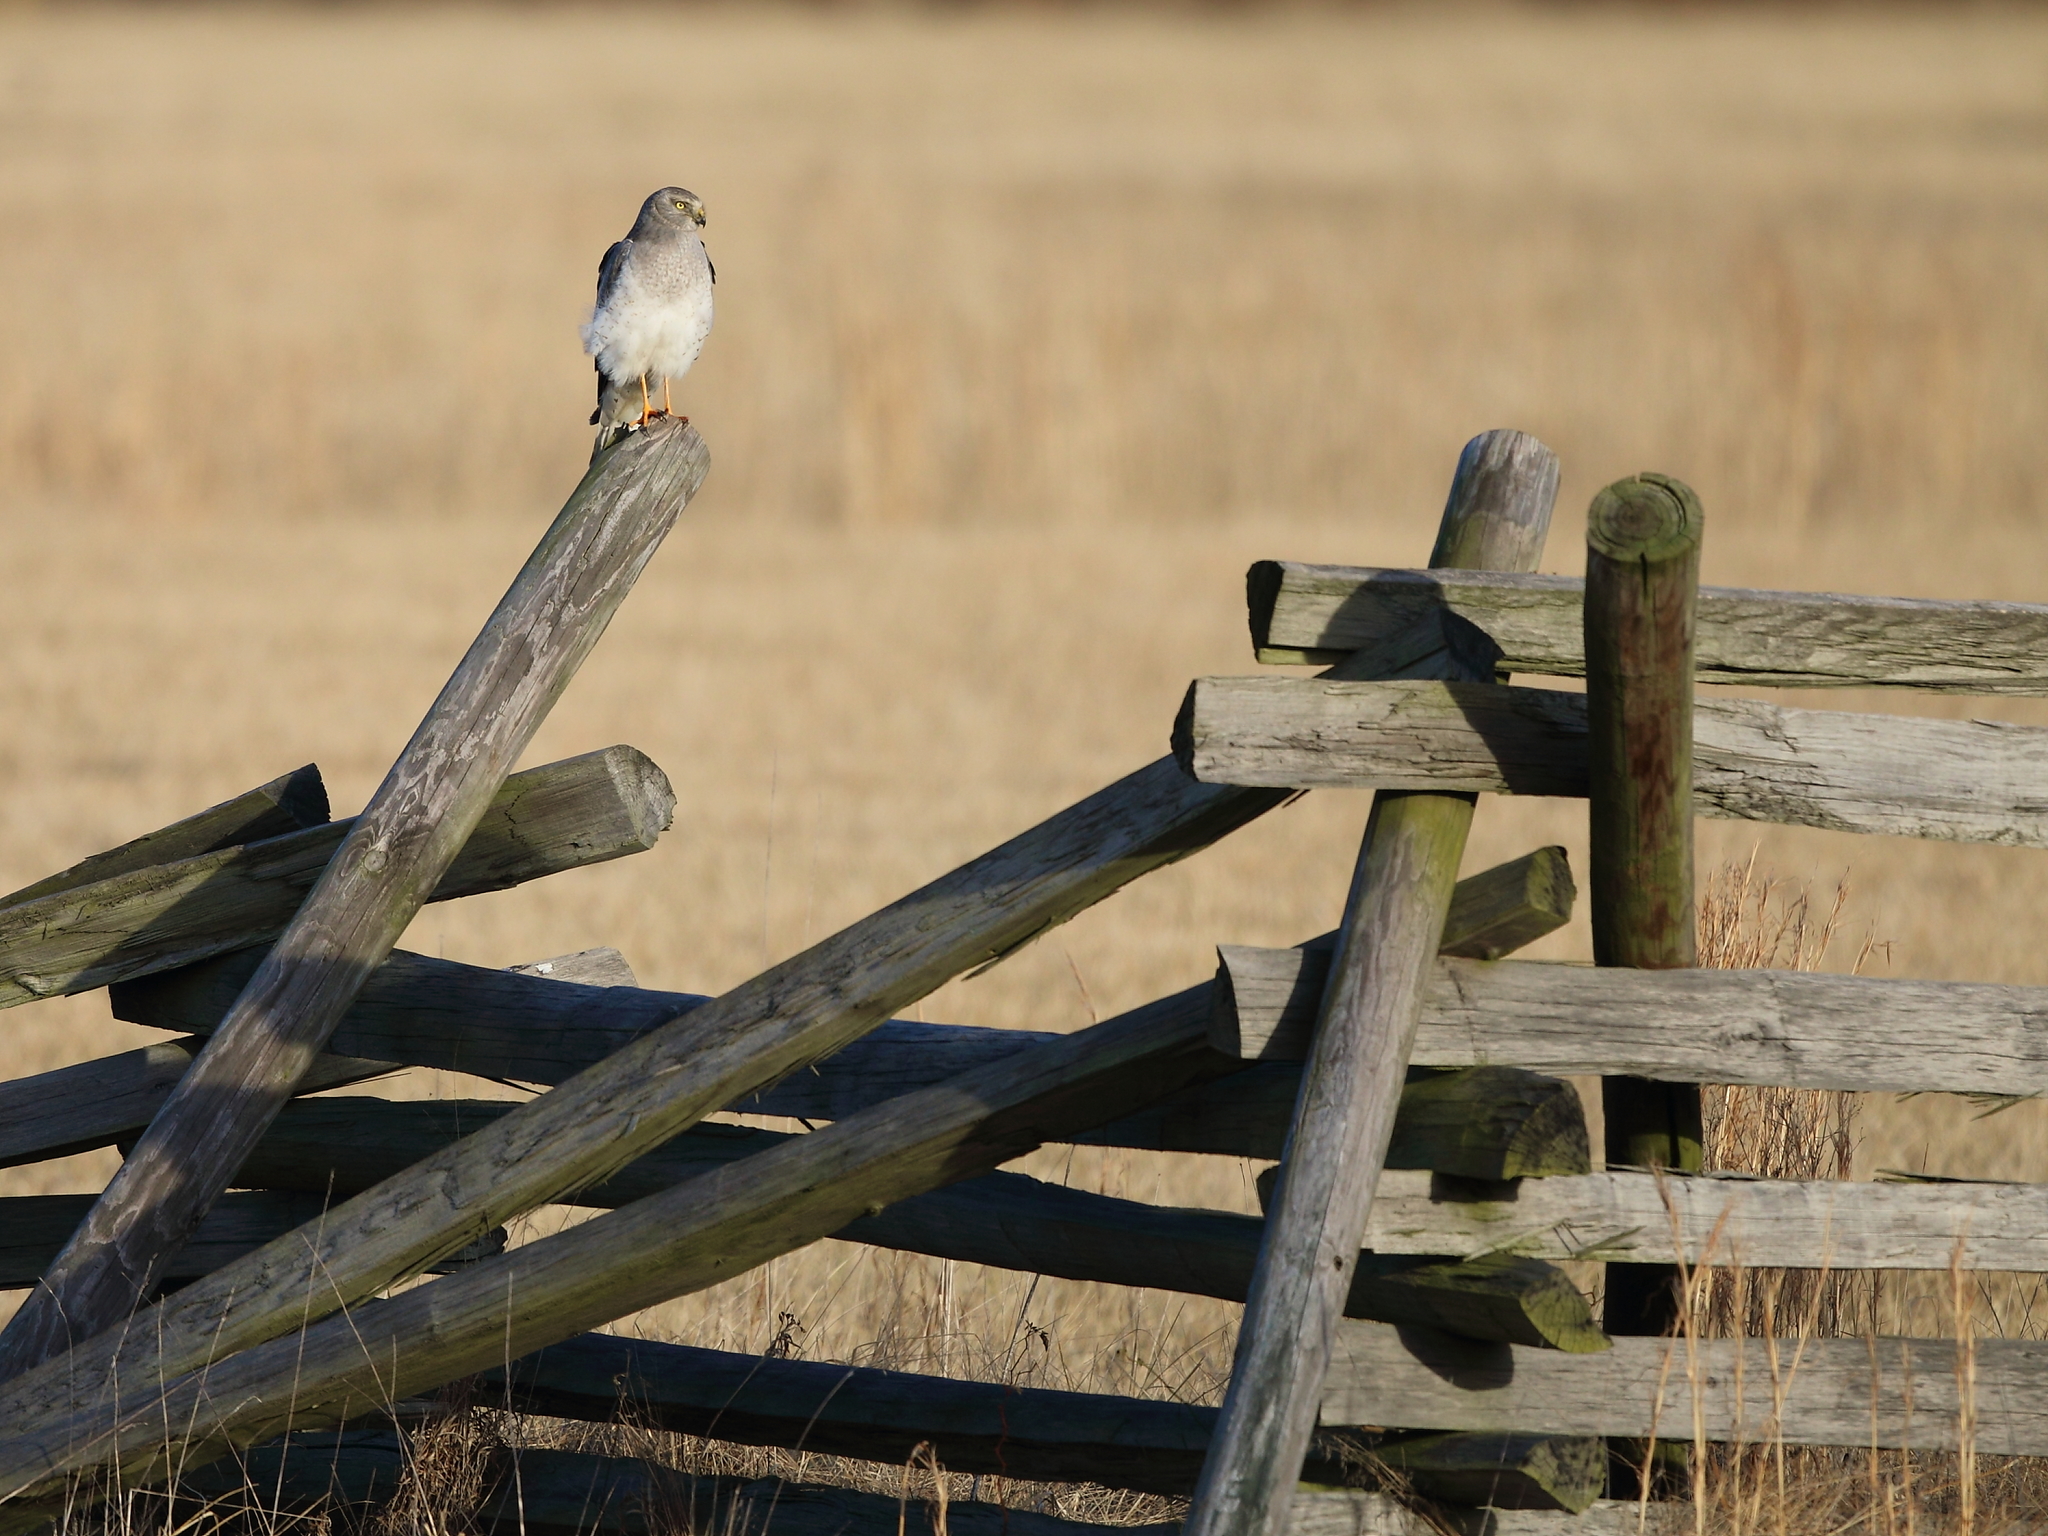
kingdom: Animalia
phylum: Chordata
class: Aves
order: Accipitriformes
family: Accipitridae
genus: Circus
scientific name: Circus cyaneus
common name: Hen harrier
